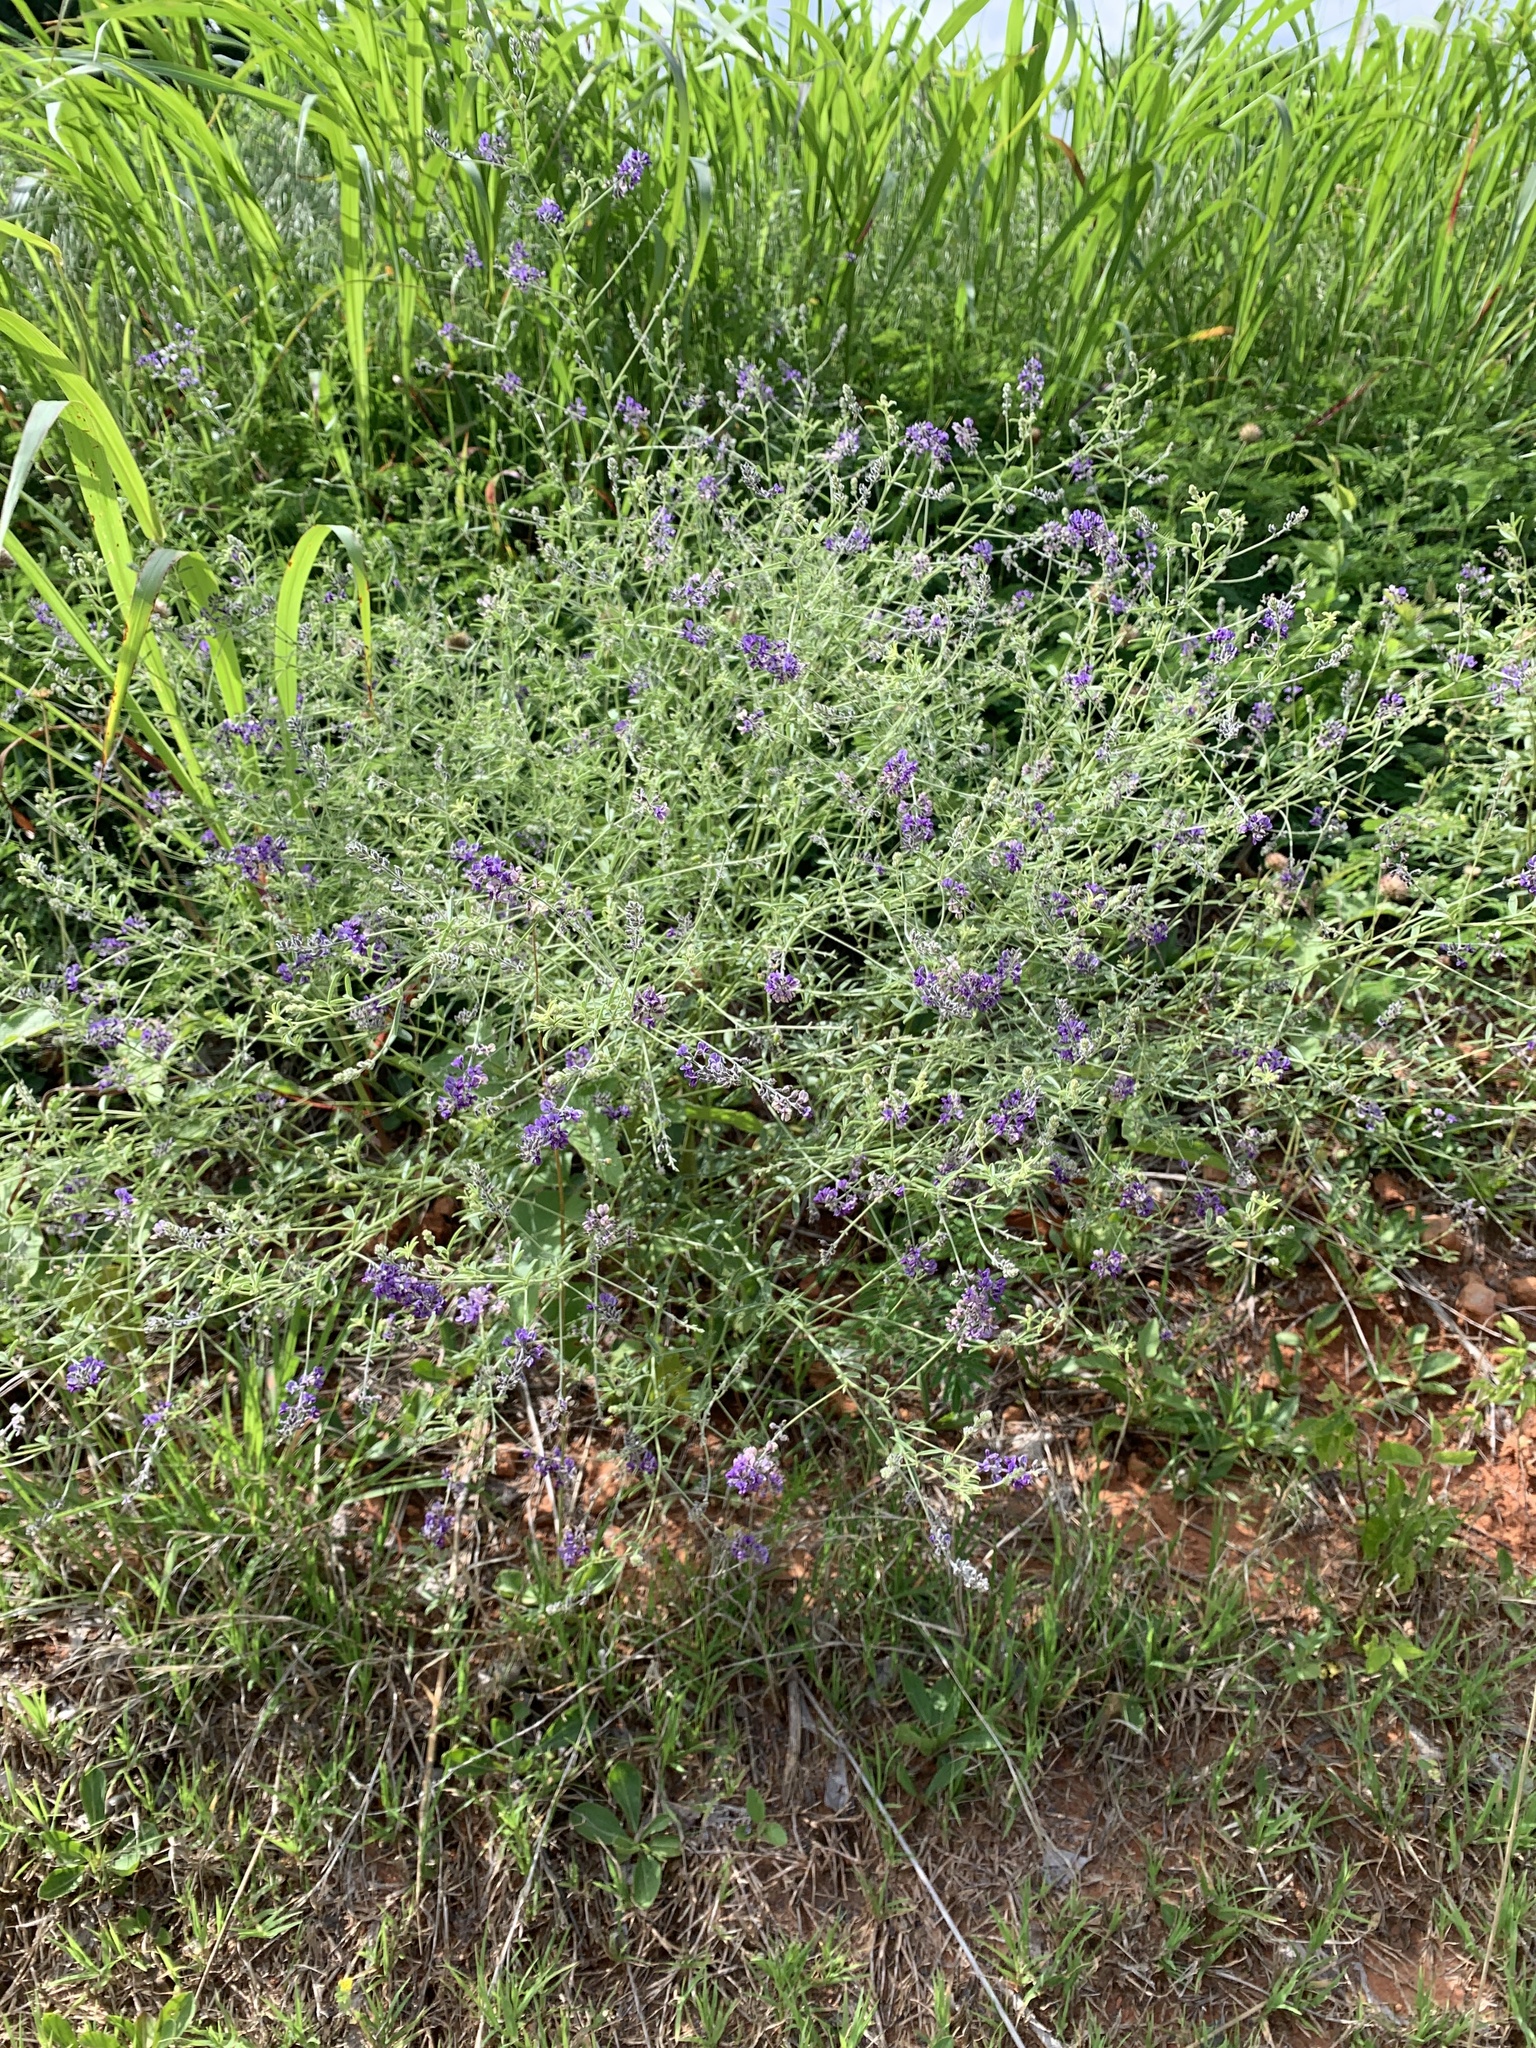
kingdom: Plantae
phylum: Tracheophyta
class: Magnoliopsida
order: Fabales
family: Fabaceae
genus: Pediomelum
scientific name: Pediomelum tenuiflorum
